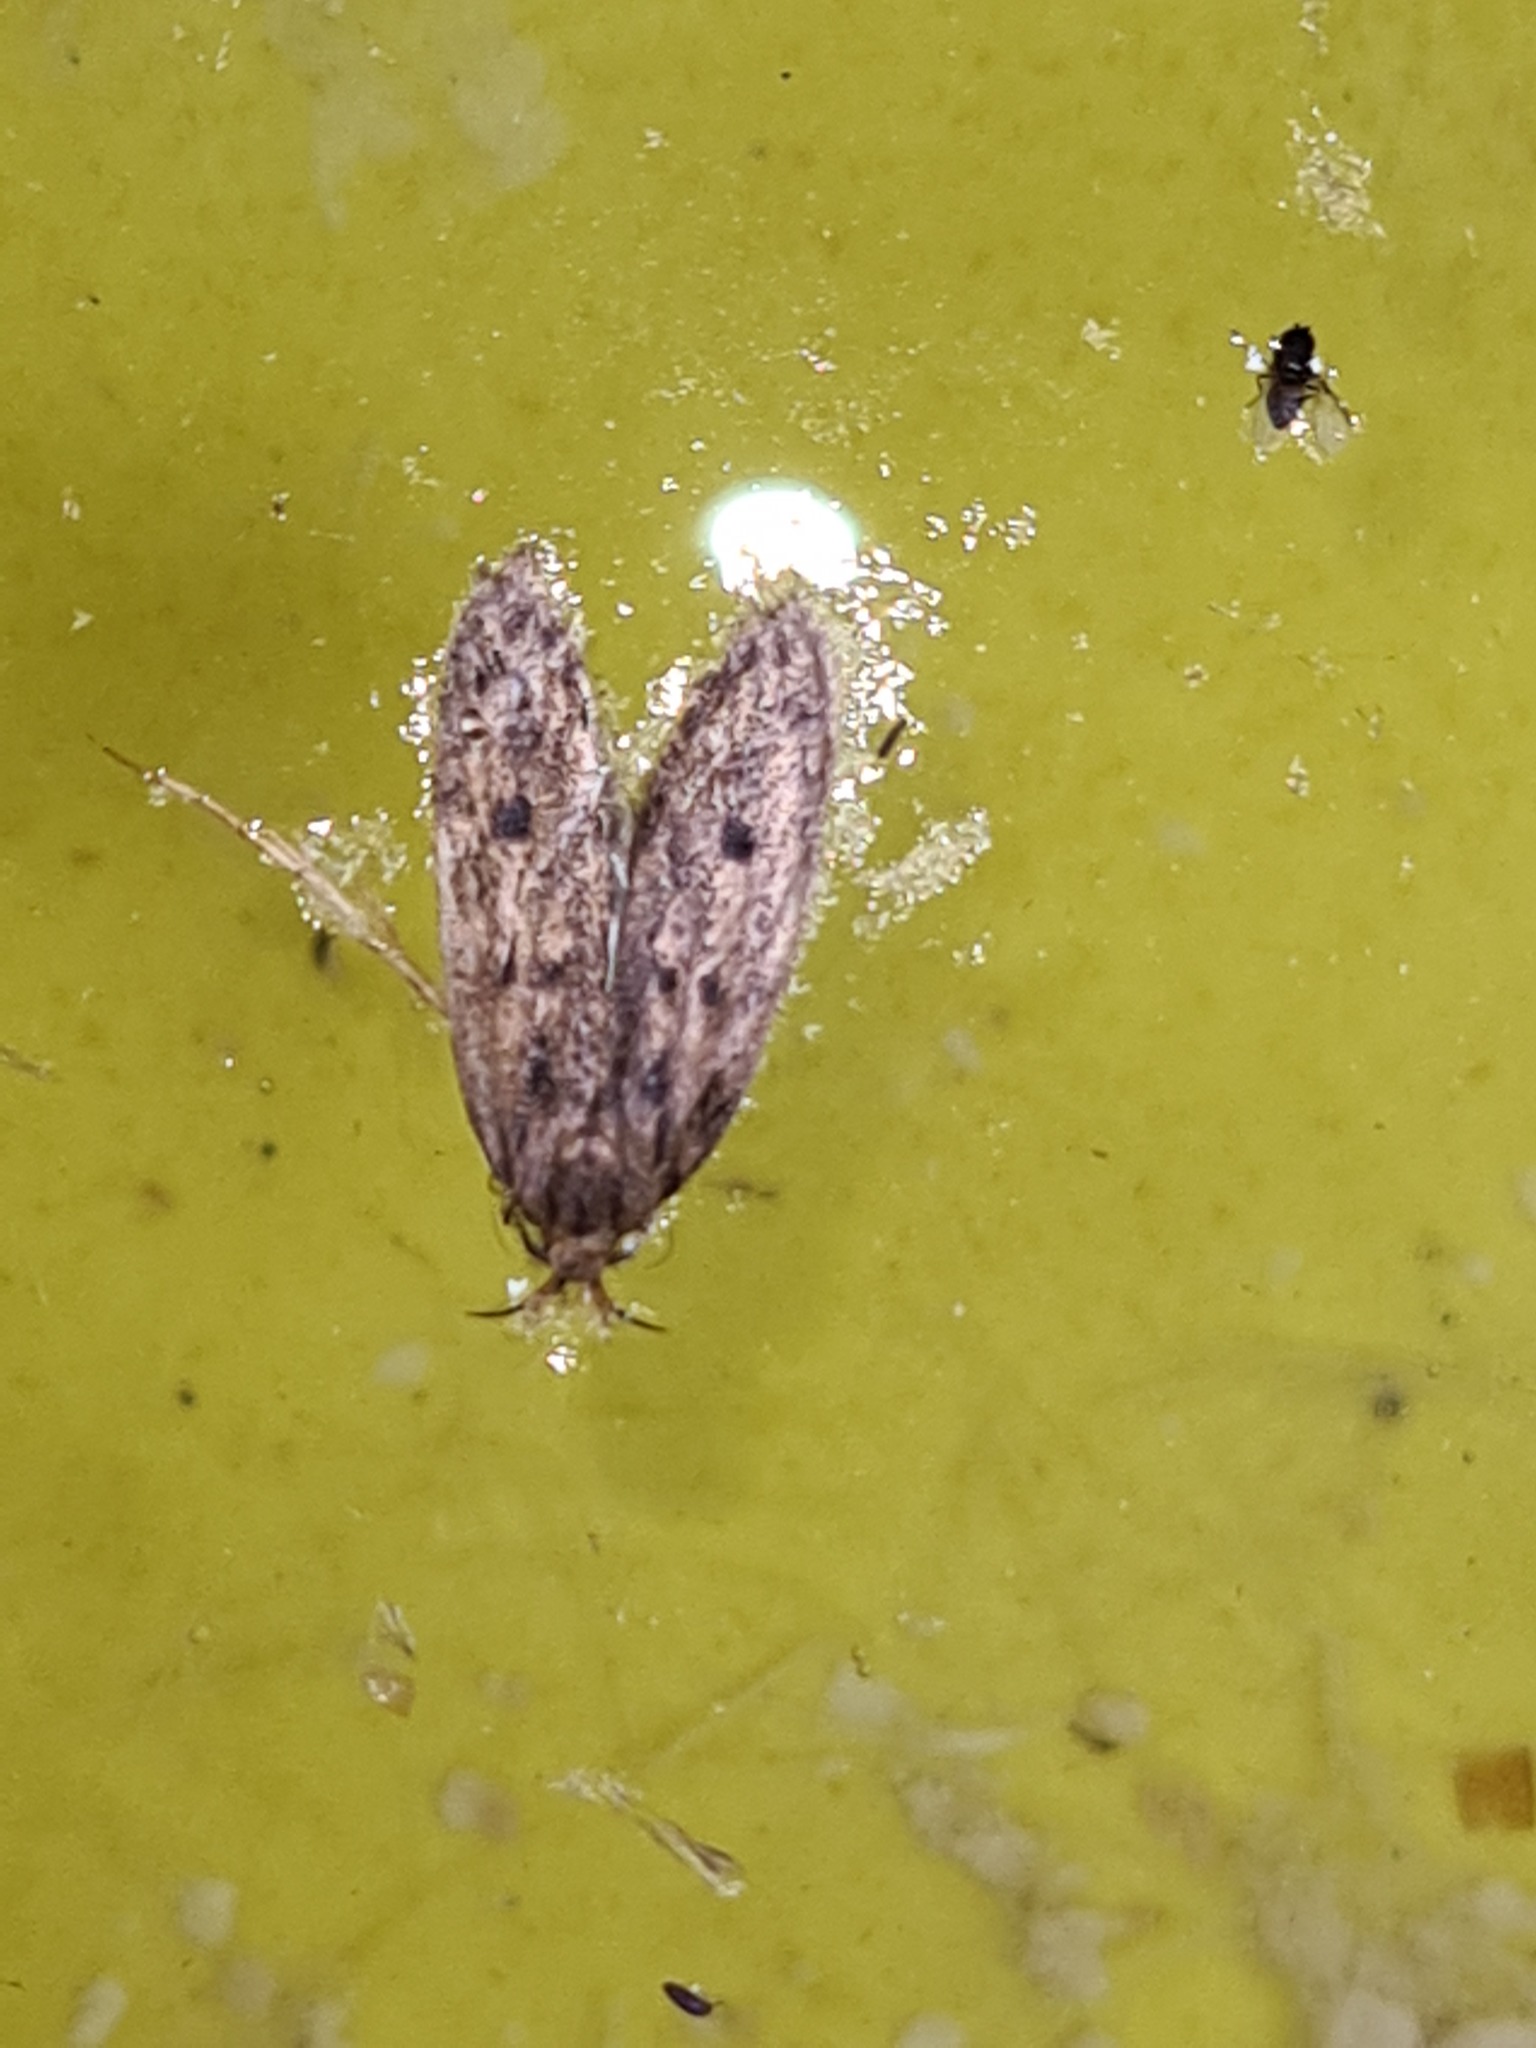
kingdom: Animalia
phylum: Arthropoda
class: Insecta
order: Lepidoptera
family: Oecophoridae
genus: Hofmannophila
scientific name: Hofmannophila pseudospretella
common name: Brown house moth
